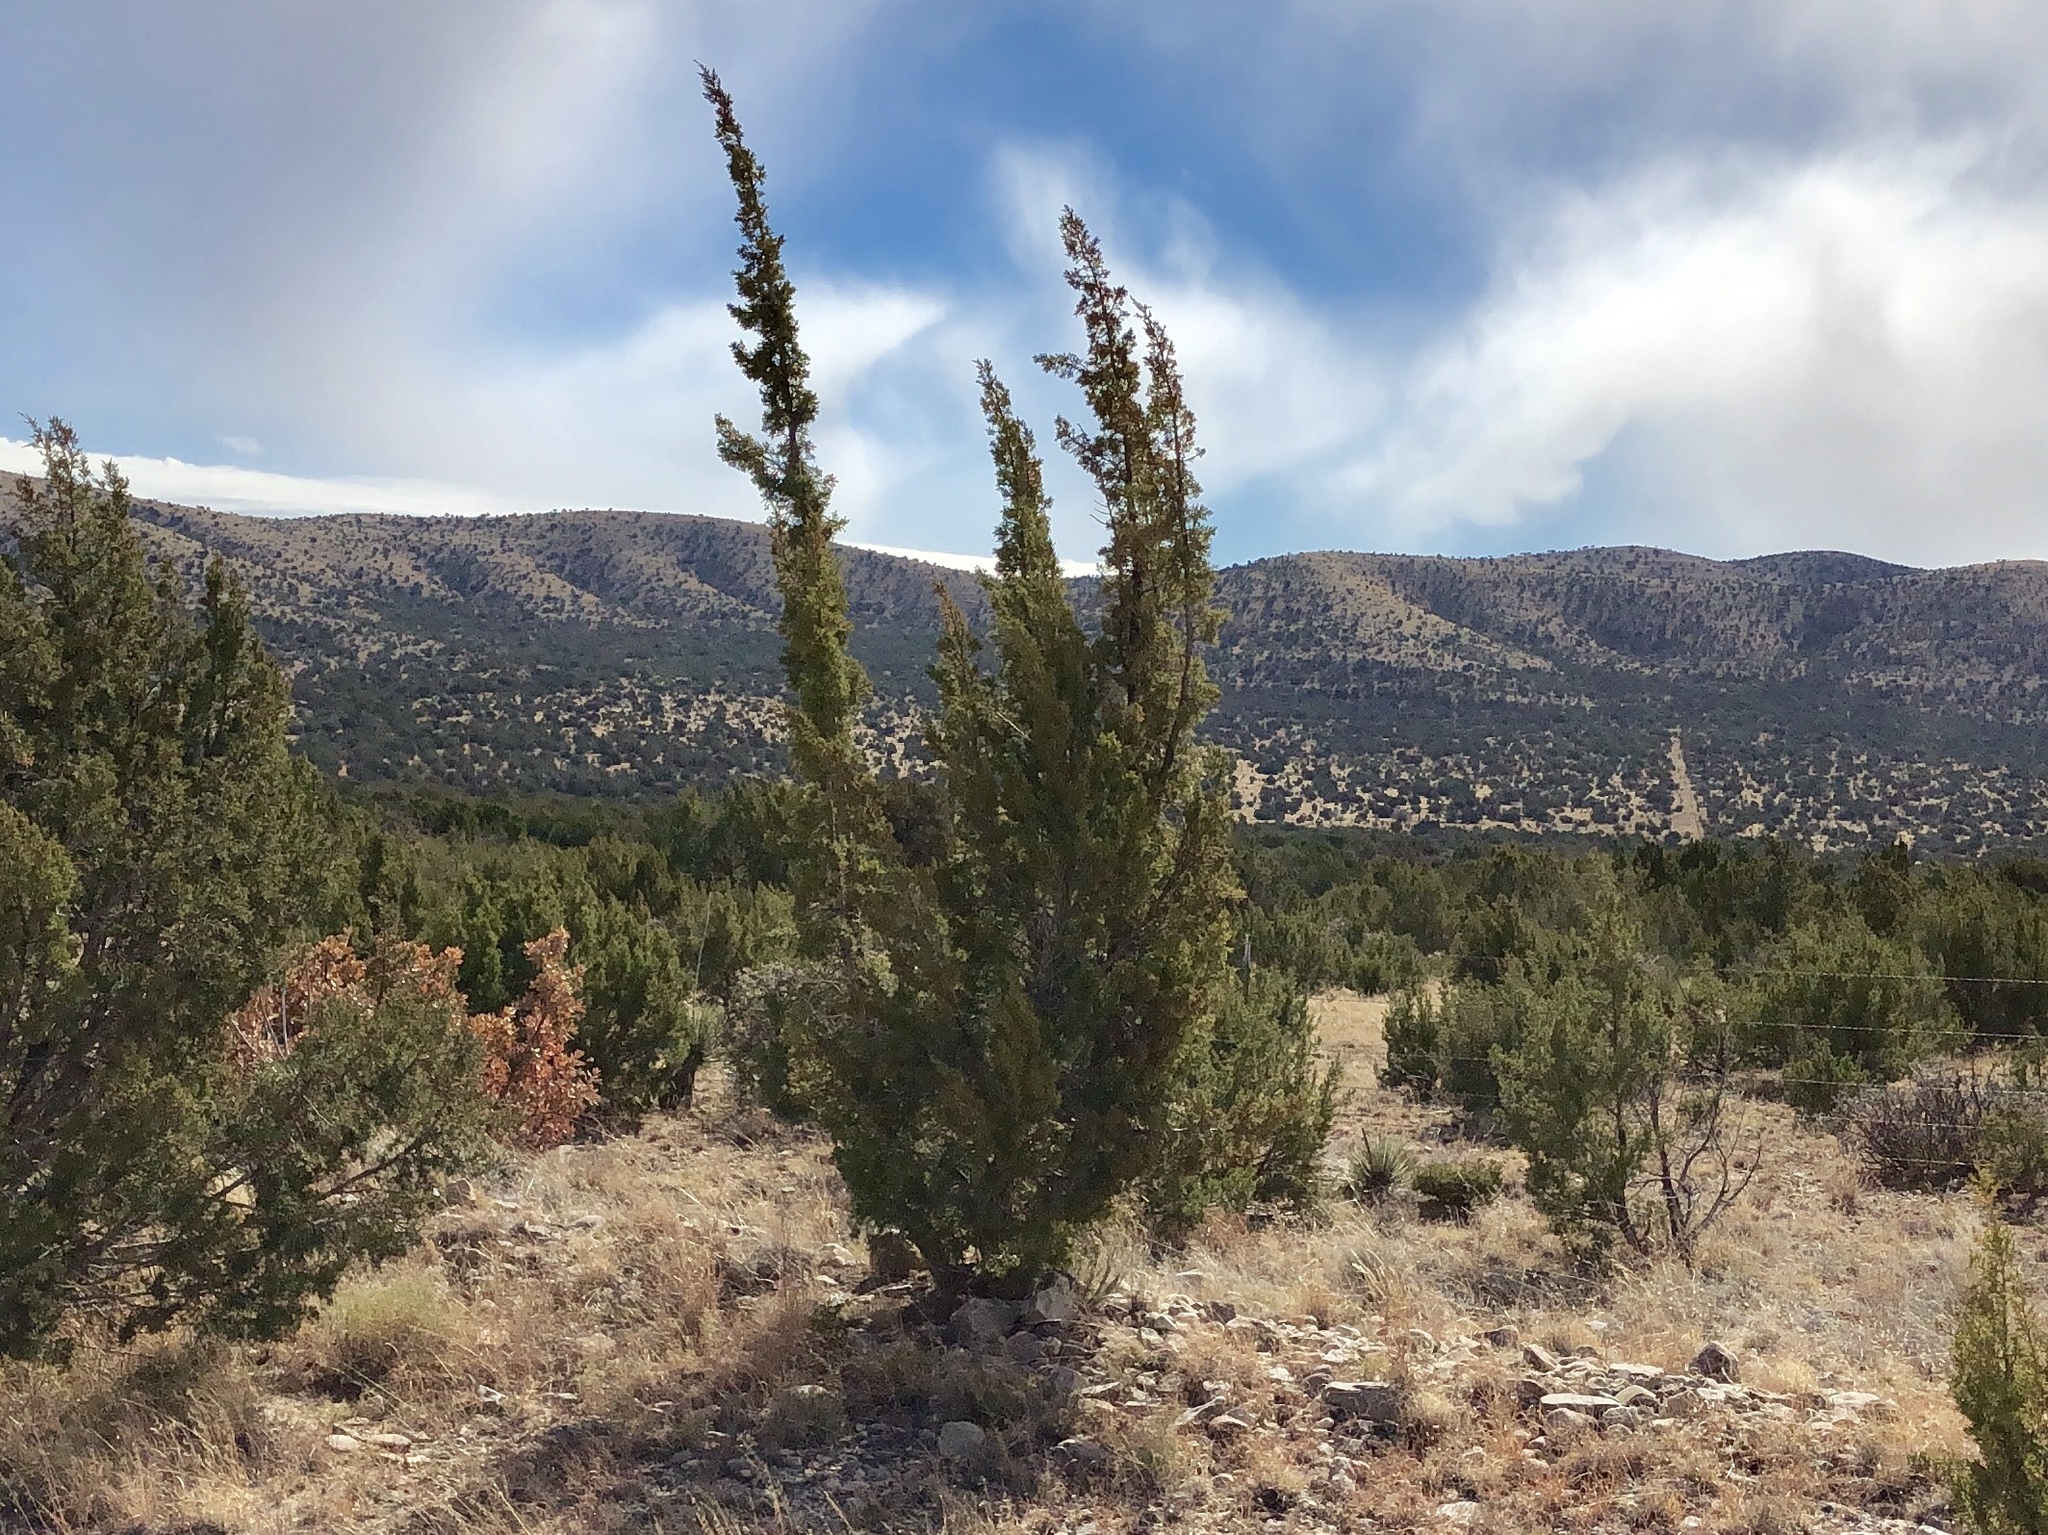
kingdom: Plantae
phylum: Tracheophyta
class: Pinopsida
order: Pinales
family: Cupressaceae
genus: Juniperus
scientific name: Juniperus monosperma
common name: One-seed juniper
